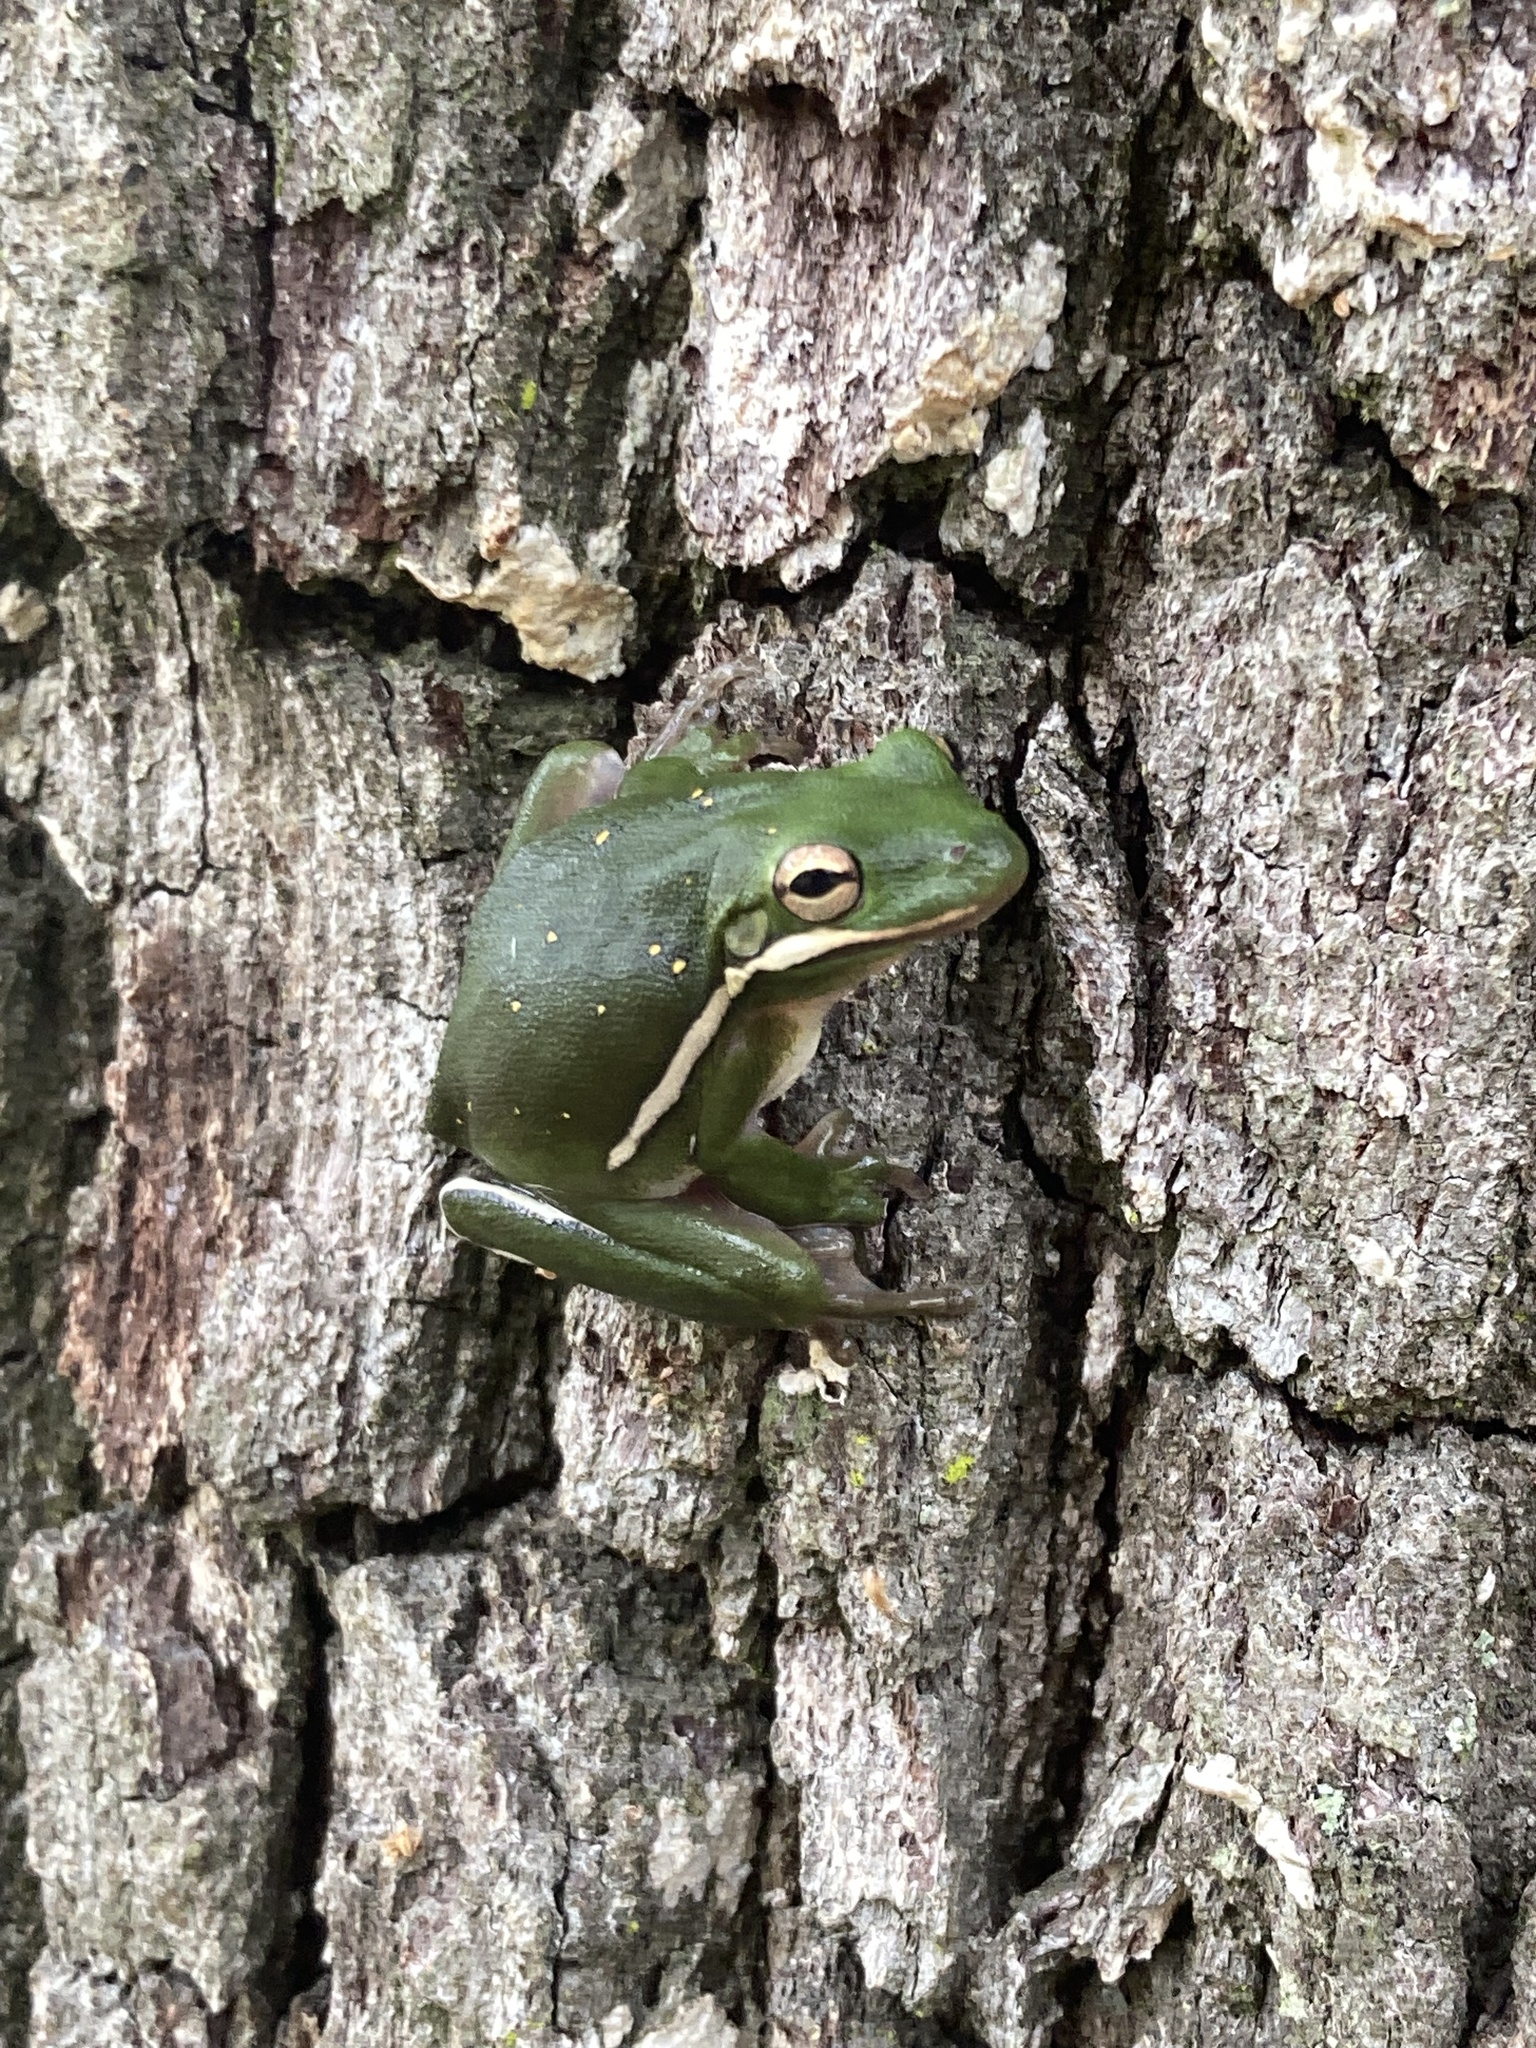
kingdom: Animalia
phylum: Chordata
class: Amphibia
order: Anura
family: Hylidae
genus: Dryophytes
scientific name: Dryophytes cinereus
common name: Green treefrog
